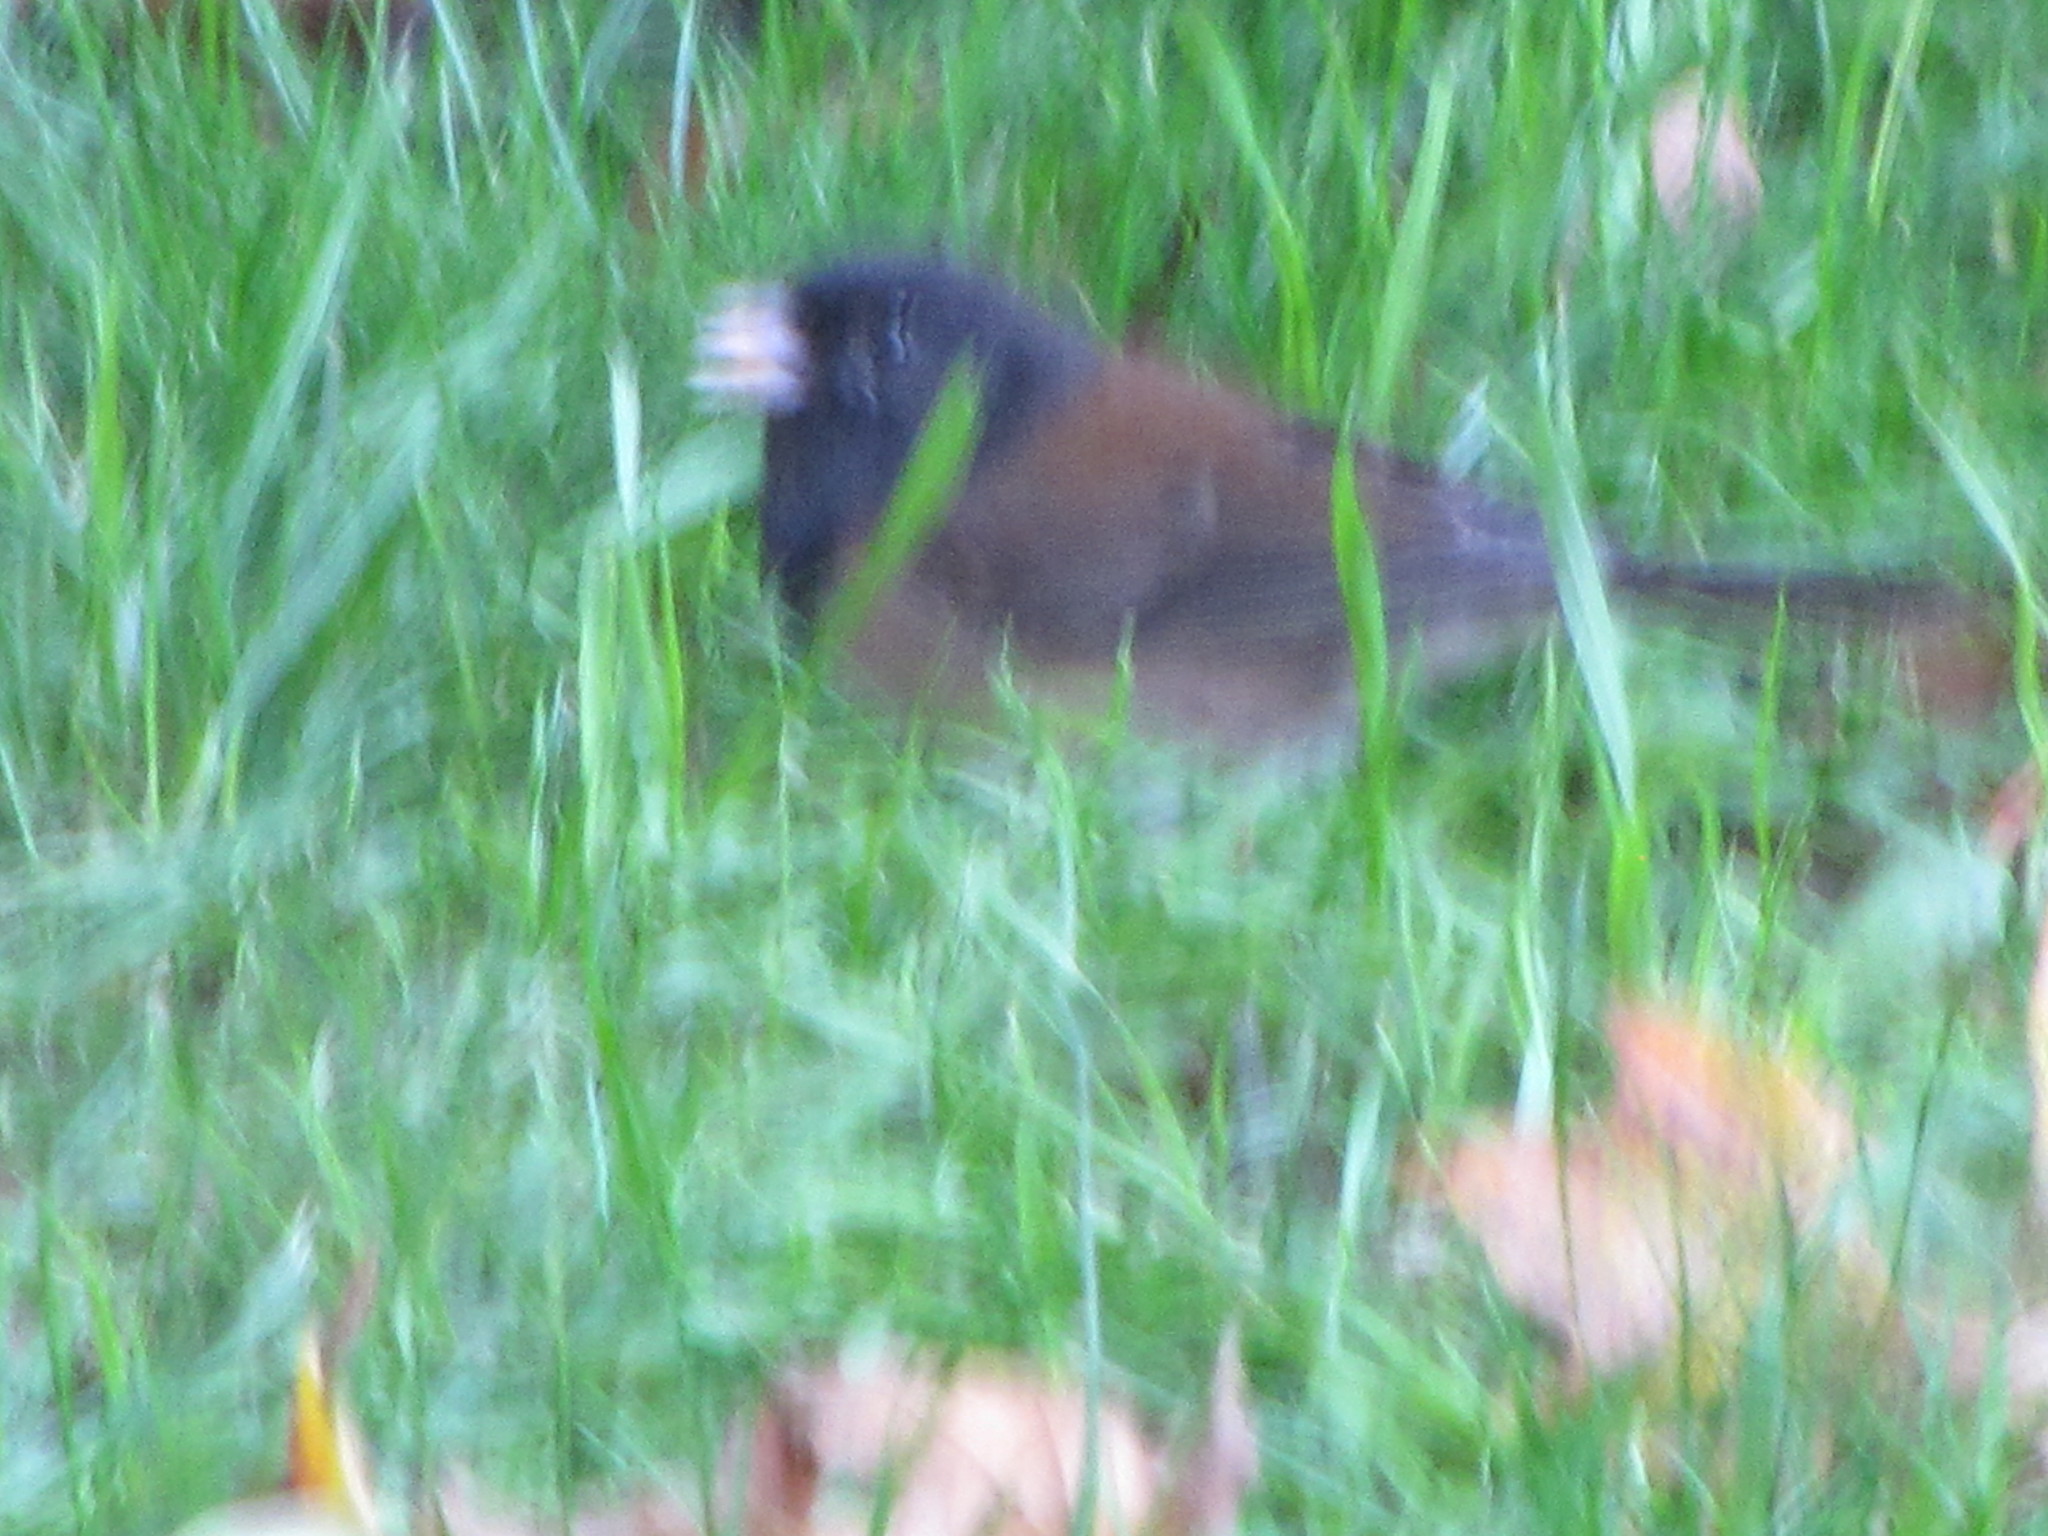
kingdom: Animalia
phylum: Chordata
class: Aves
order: Passeriformes
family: Passerellidae
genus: Junco
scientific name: Junco hyemalis
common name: Dark-eyed junco
